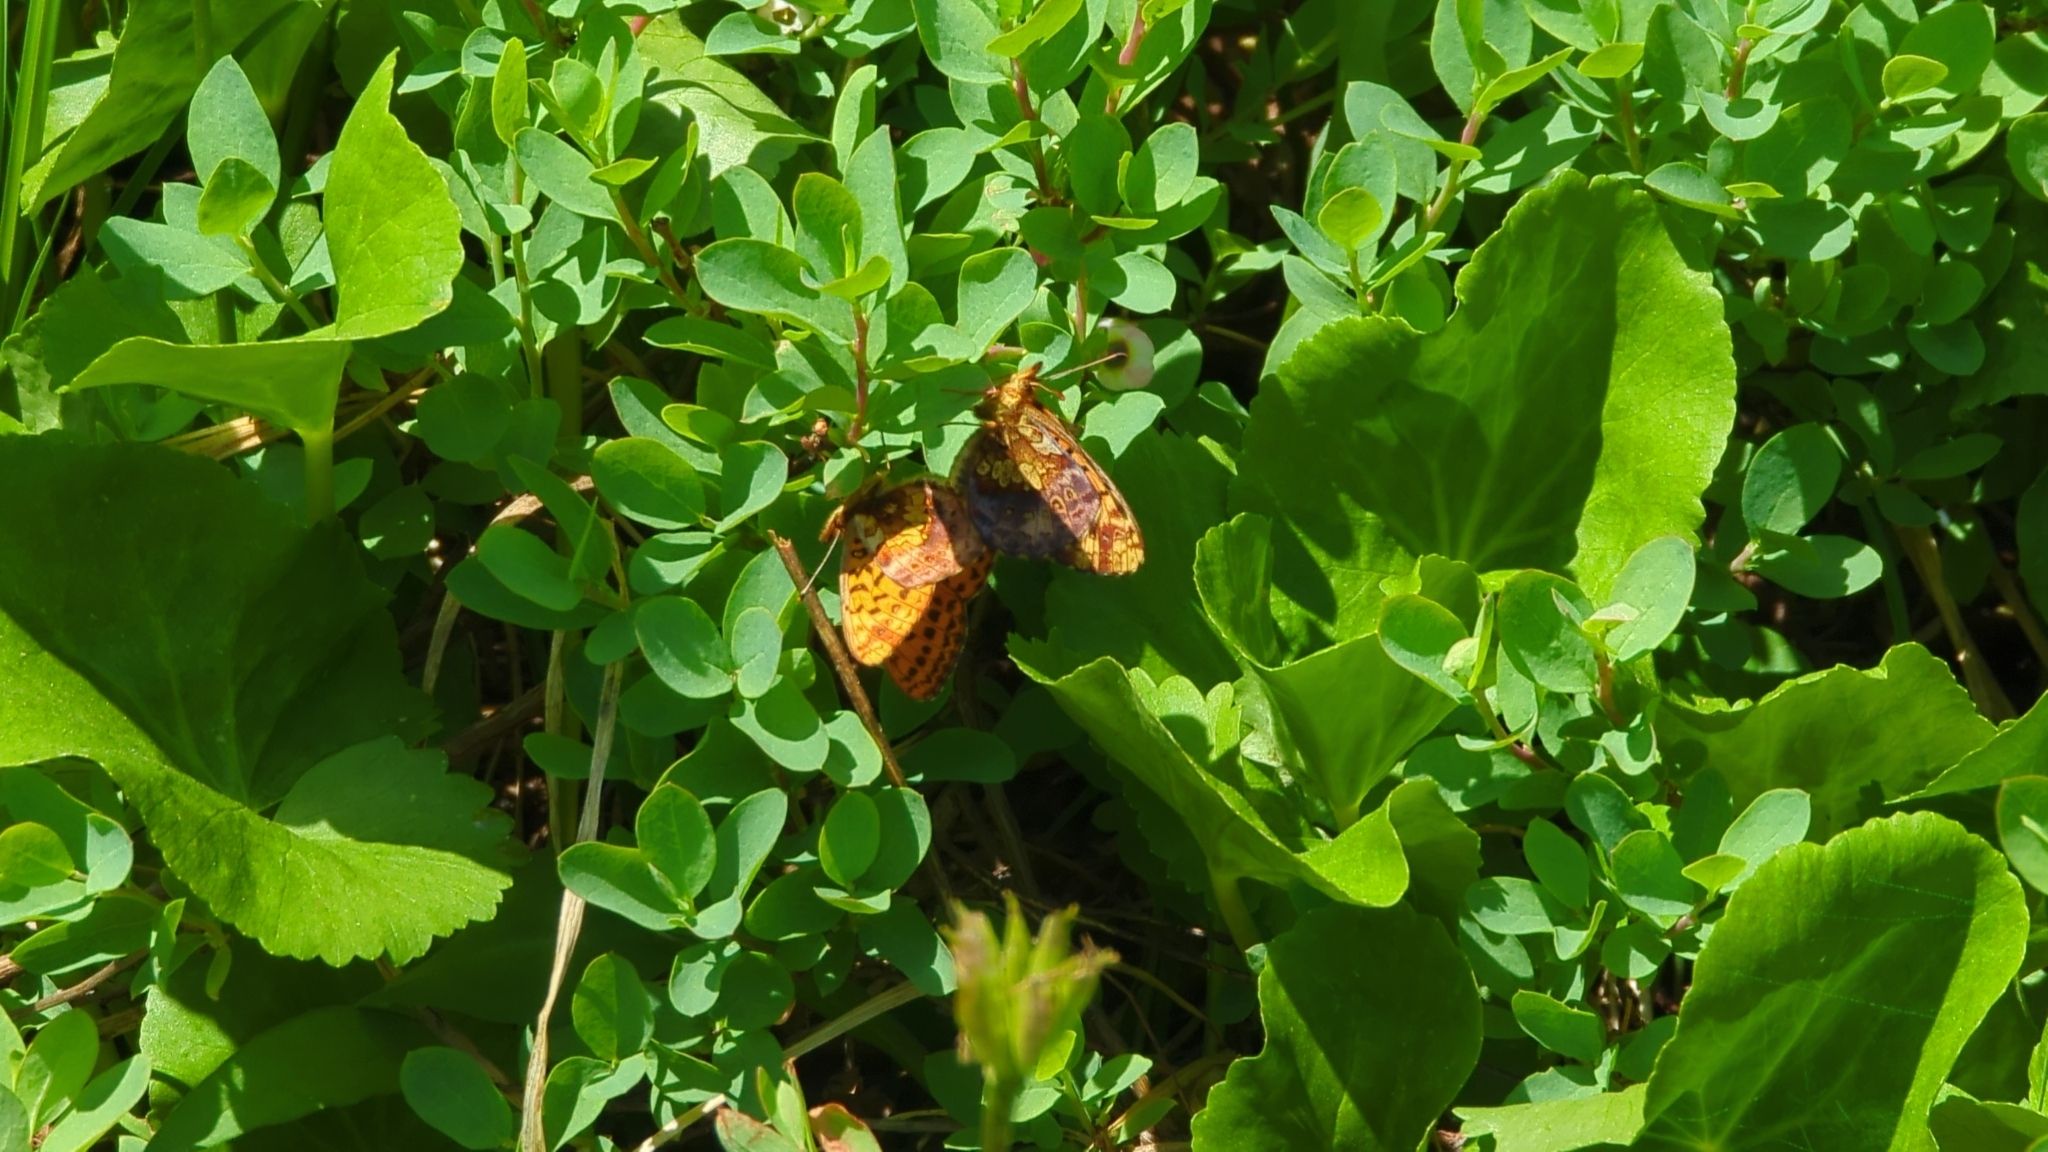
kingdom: Animalia
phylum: Arthropoda
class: Insecta
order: Lepidoptera
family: Nymphalidae
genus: Boloria
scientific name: Boloria epithore
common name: Pacific fritillary
